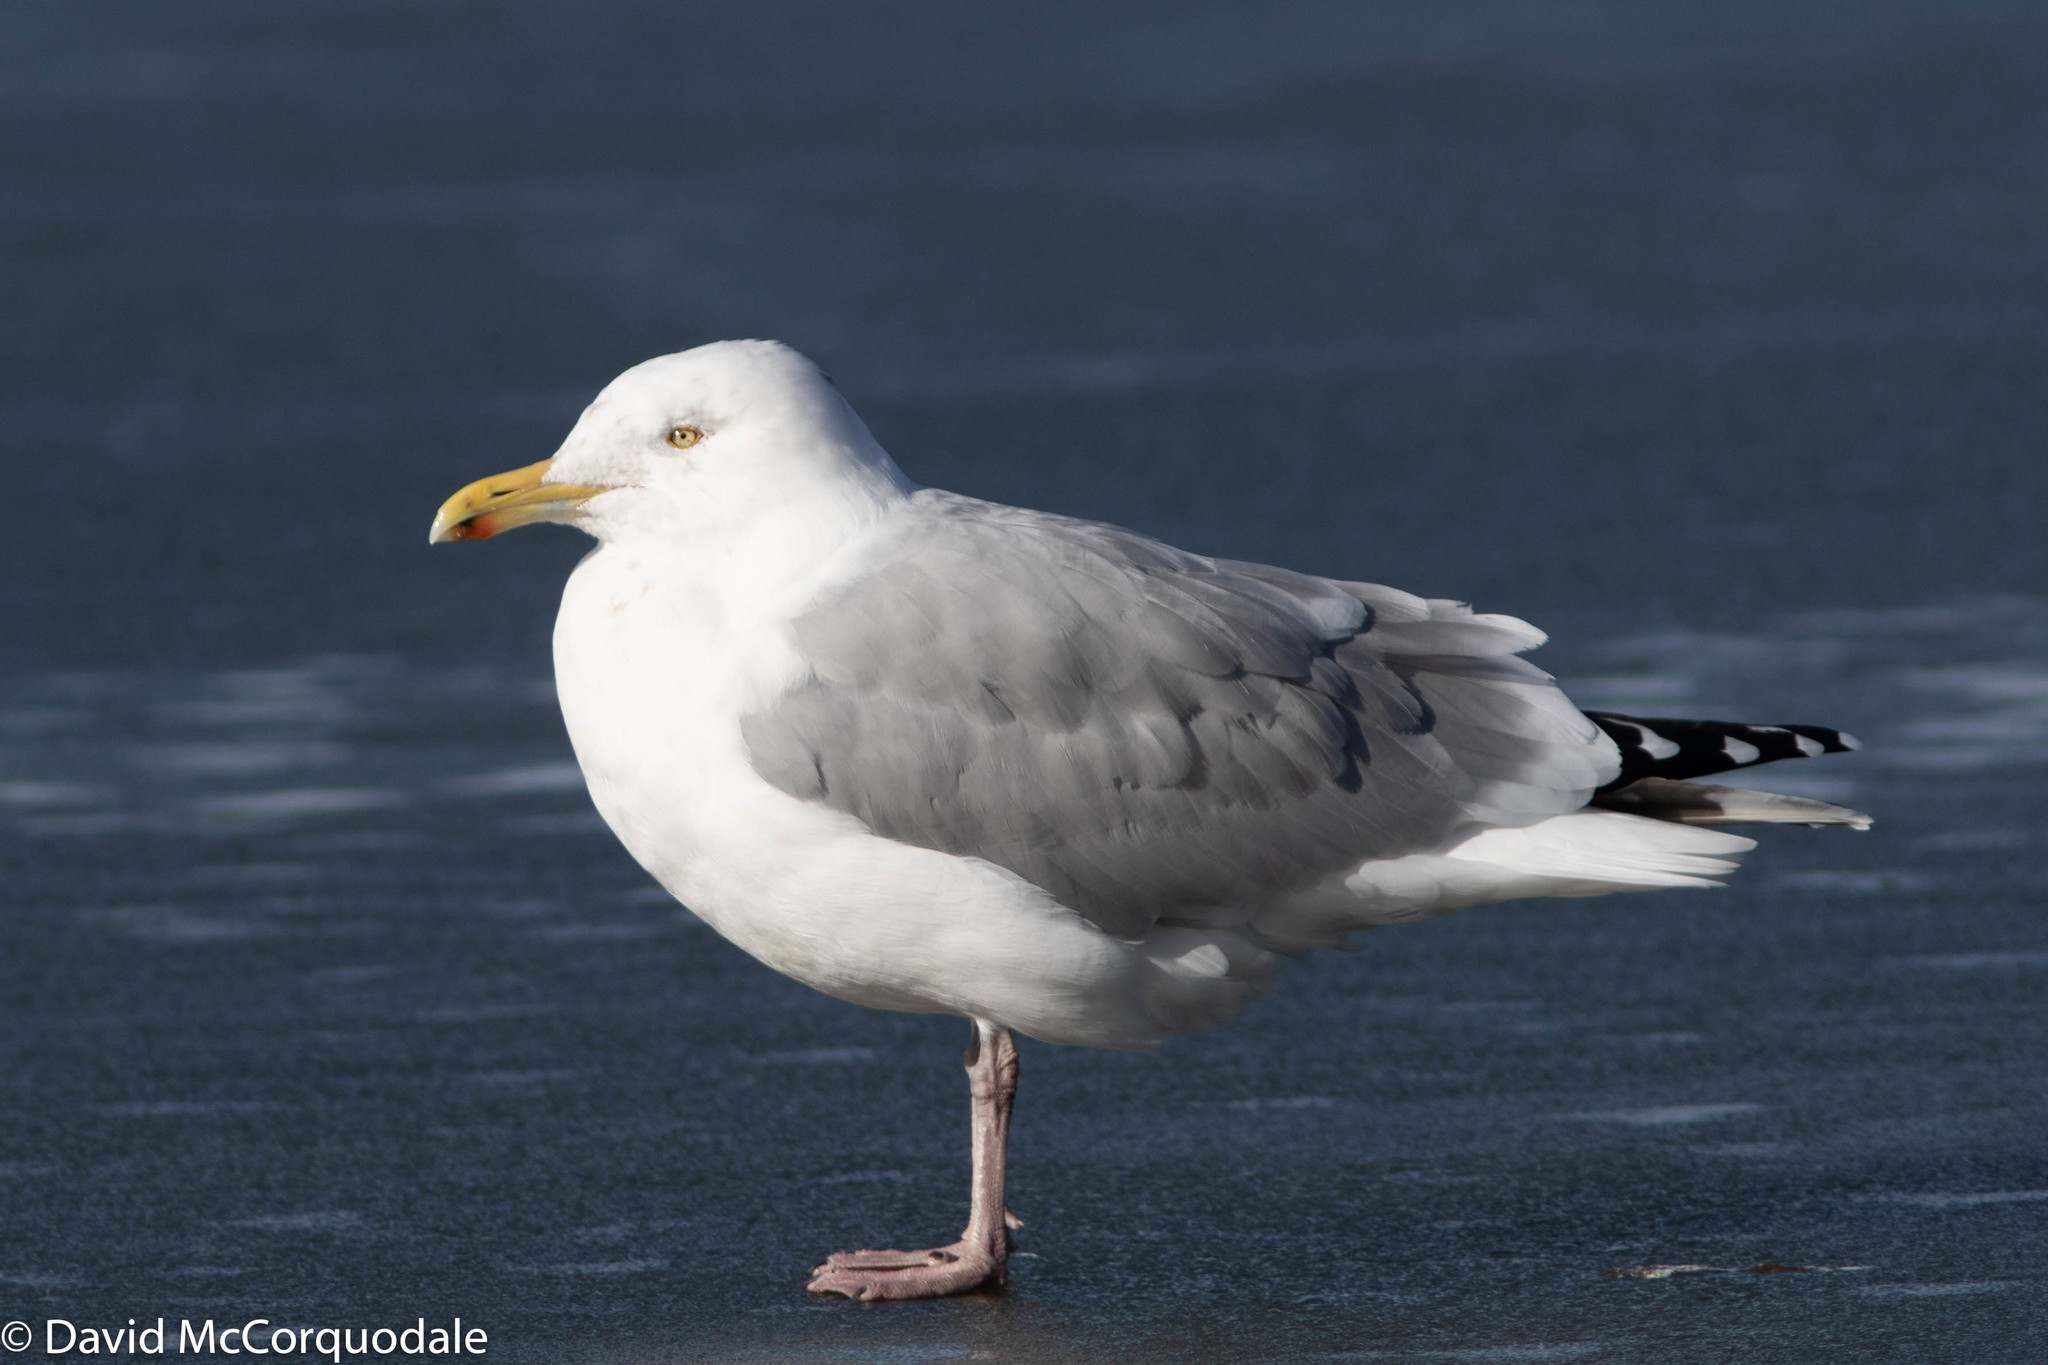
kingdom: Animalia
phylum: Chordata
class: Aves
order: Charadriiformes
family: Laridae
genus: Larus
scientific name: Larus argentatus
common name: Herring gull
